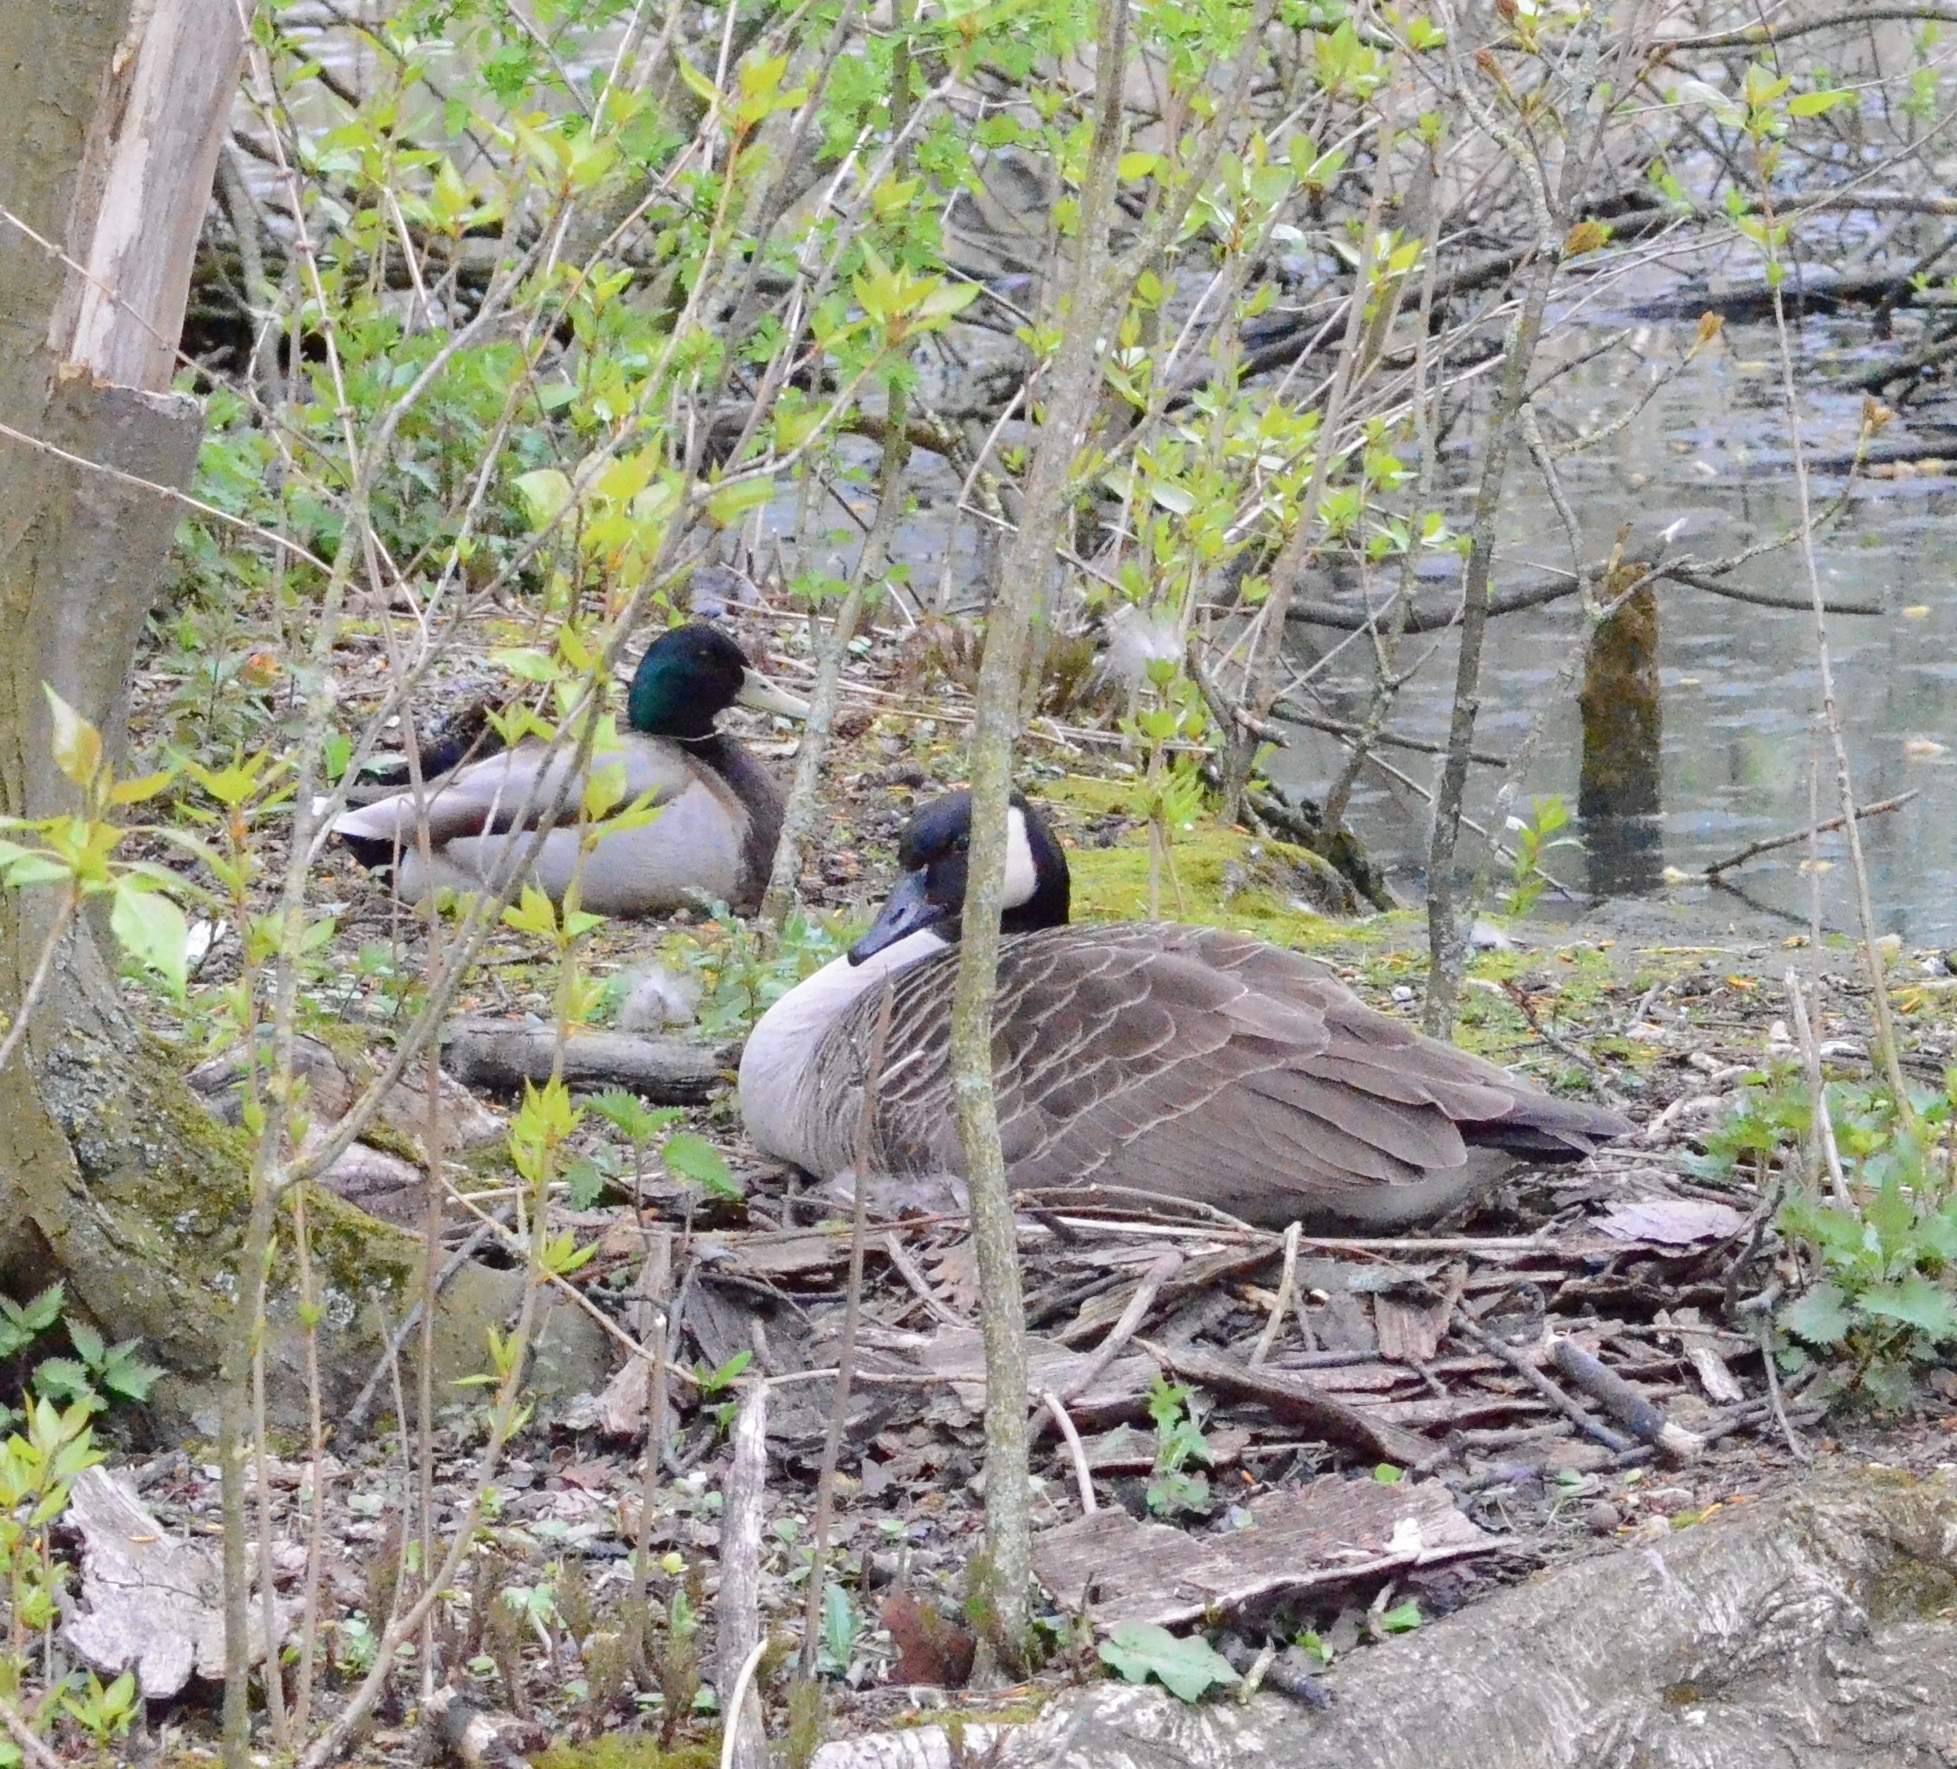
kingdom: Animalia
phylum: Chordata
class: Aves
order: Anseriformes
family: Anatidae
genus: Branta
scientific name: Branta canadensis
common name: Canada goose
